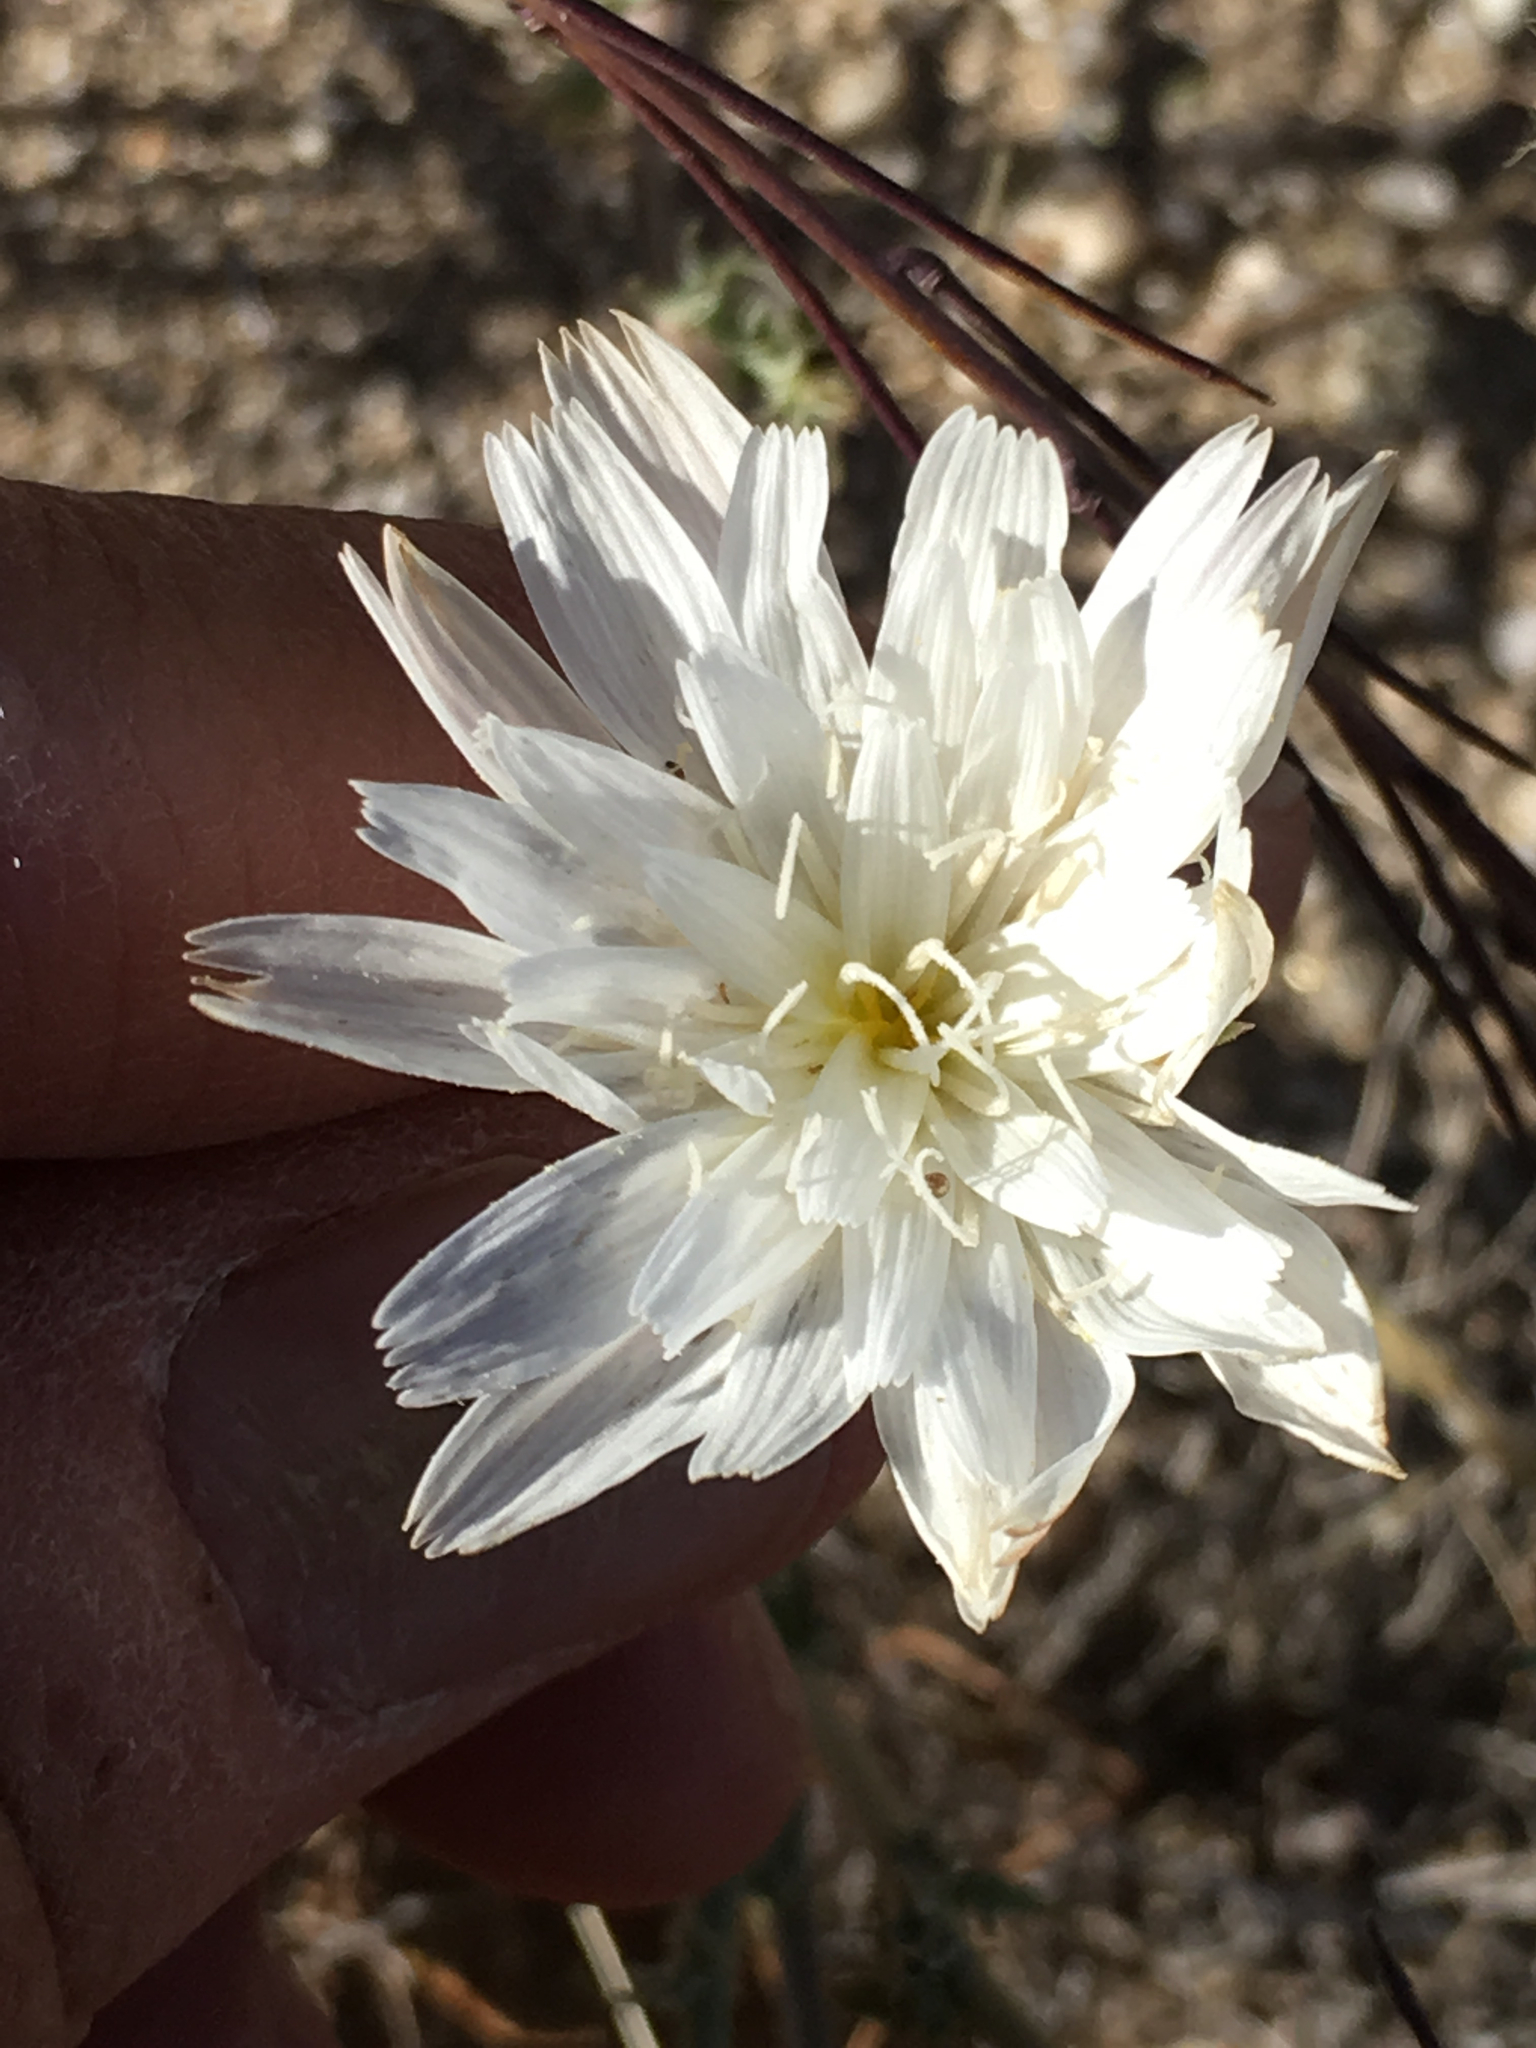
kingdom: Plantae
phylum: Tracheophyta
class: Magnoliopsida
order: Asterales
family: Asteraceae
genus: Rafinesquia
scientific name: Rafinesquia neomexicana
